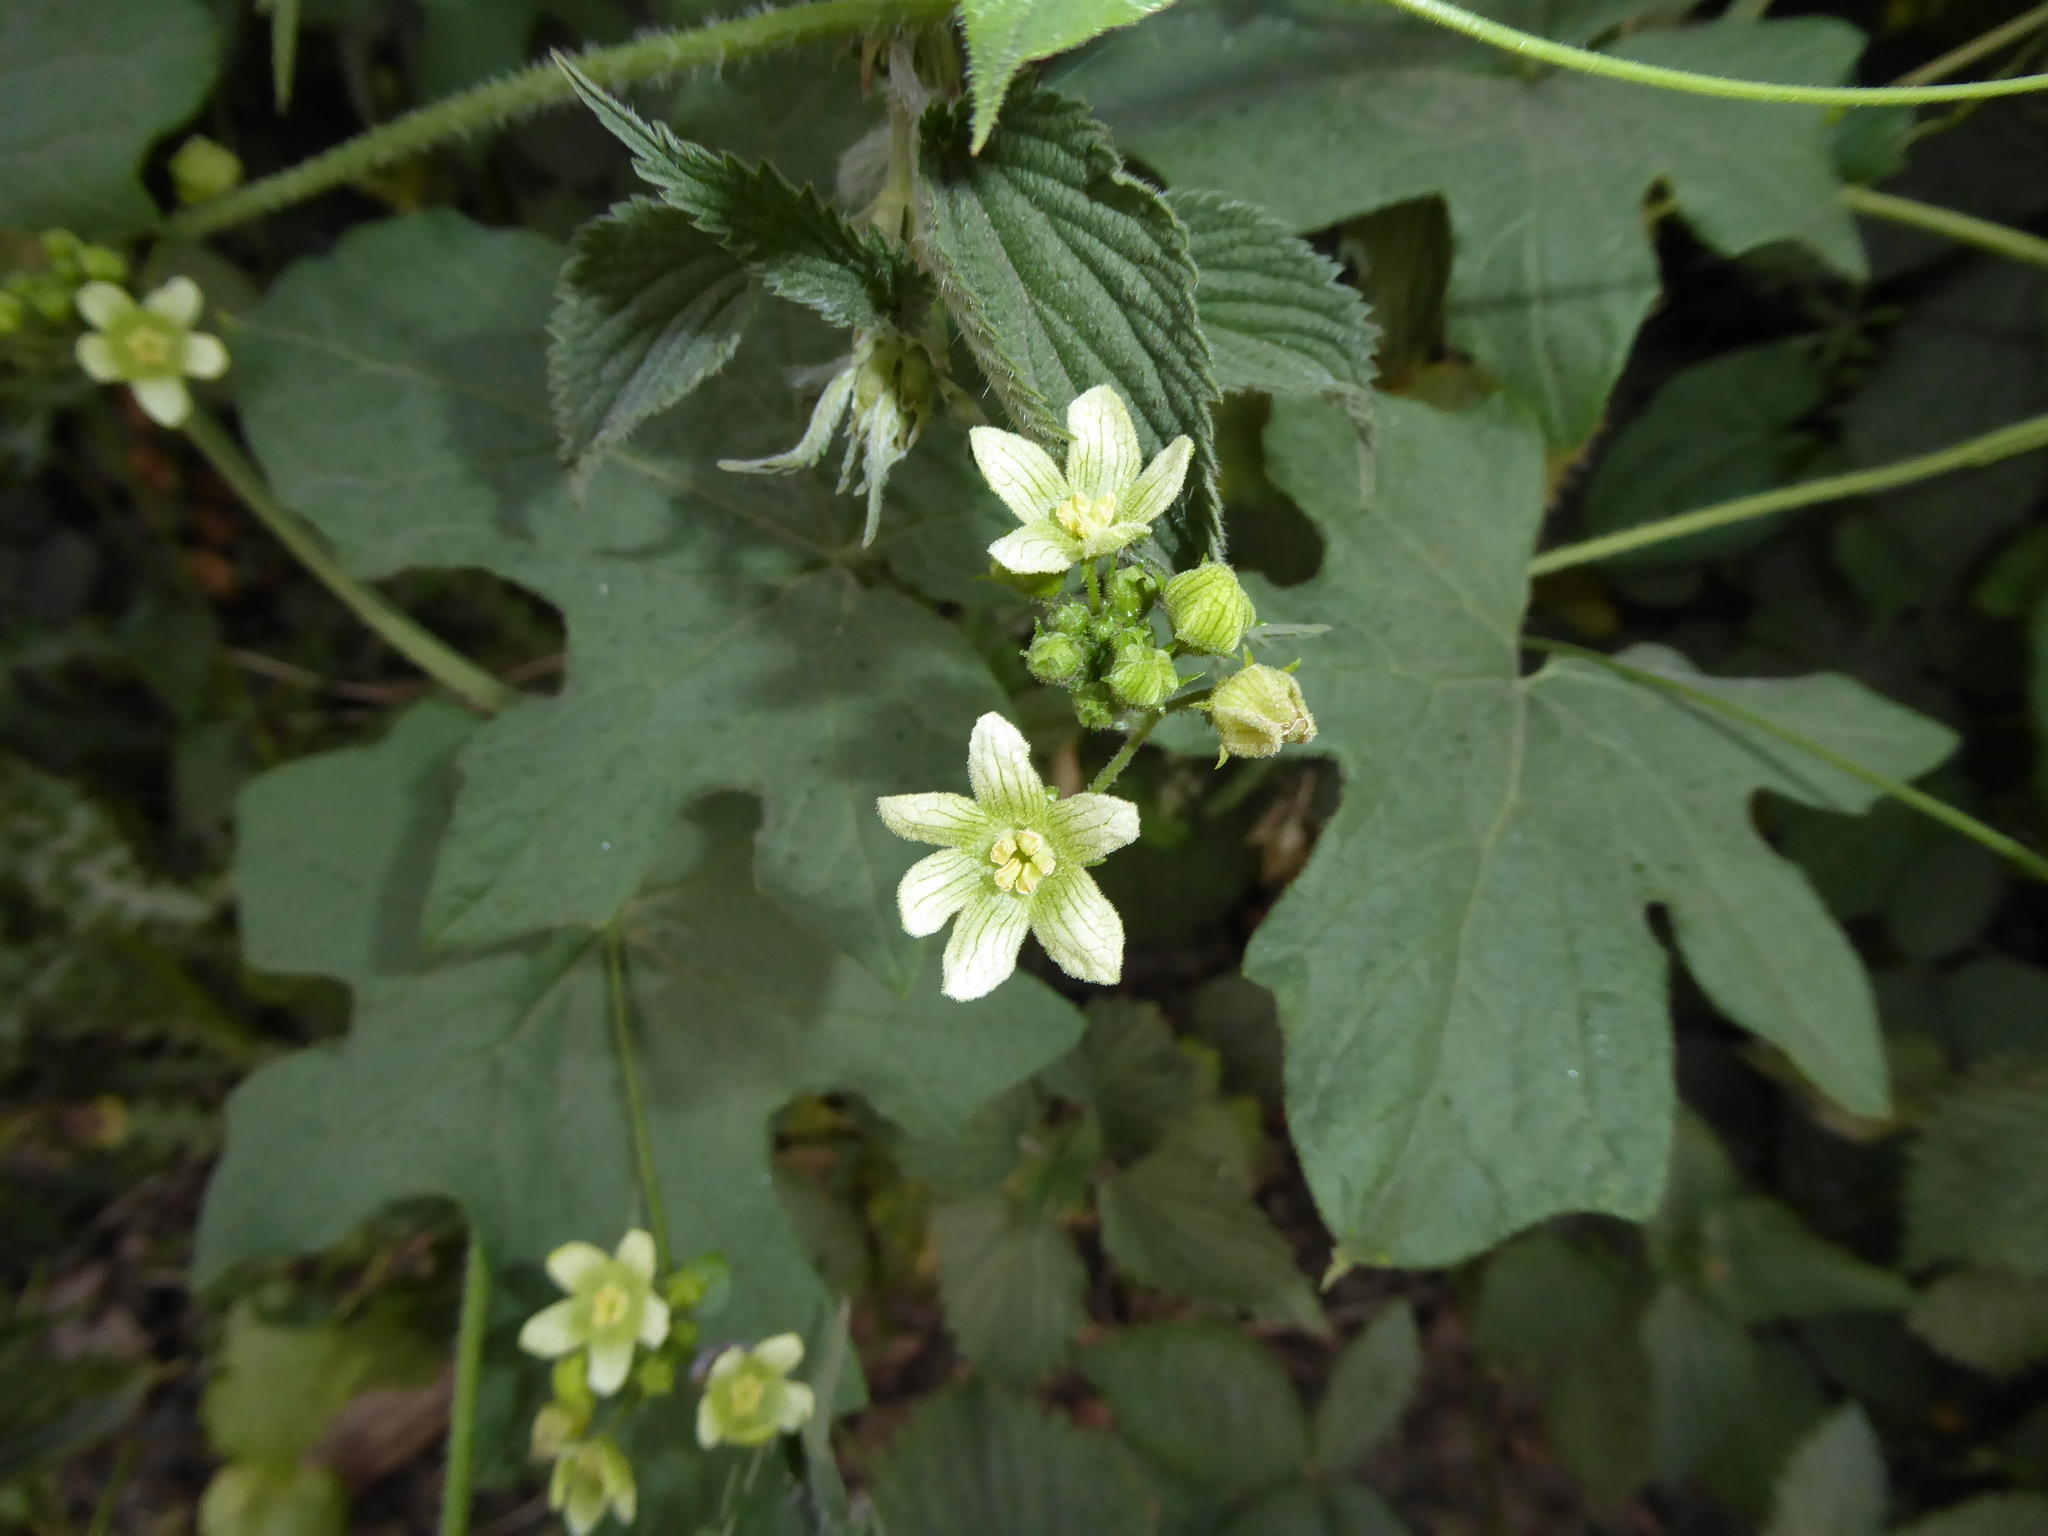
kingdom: Plantae
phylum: Tracheophyta
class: Magnoliopsida
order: Cucurbitales
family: Cucurbitaceae
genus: Bryonia
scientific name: Bryonia cretica
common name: Cretan bryony
